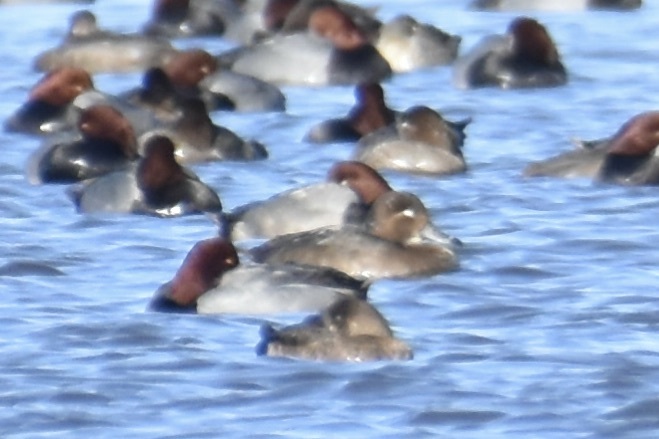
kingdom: Animalia
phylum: Chordata
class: Aves
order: Anseriformes
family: Anatidae
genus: Aythya
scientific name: Aythya americana
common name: Redhead
